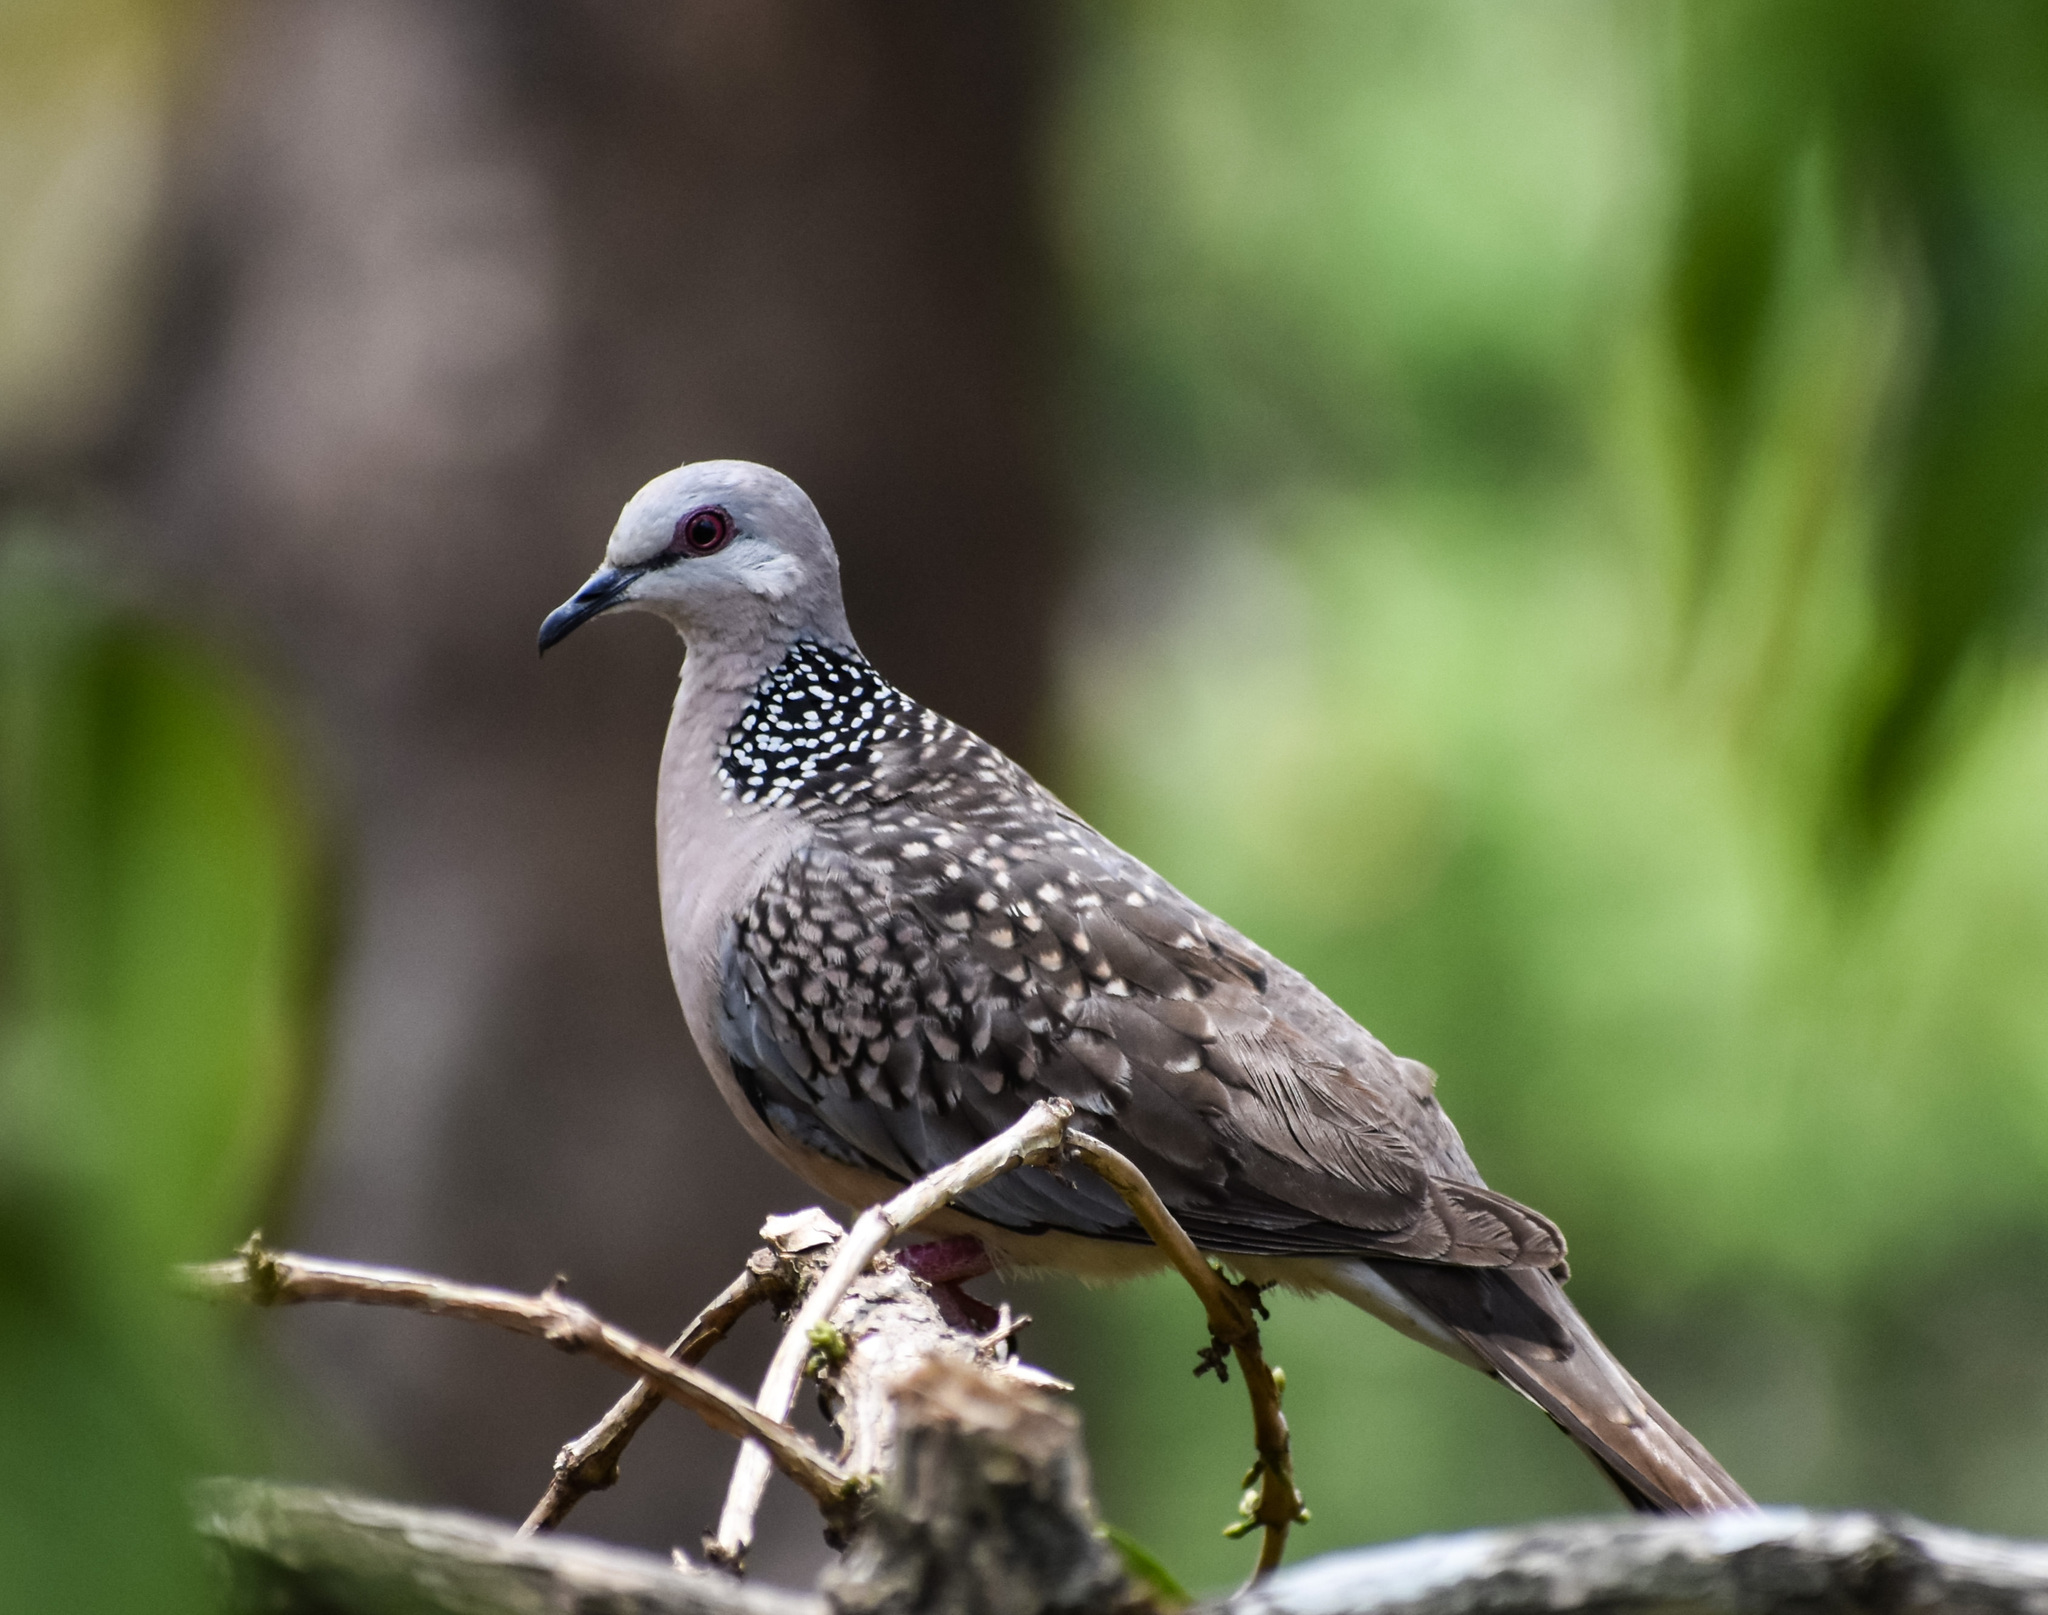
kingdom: Animalia
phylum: Chordata
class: Aves
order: Columbiformes
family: Columbidae
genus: Spilopelia
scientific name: Spilopelia chinensis
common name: Spotted dove
